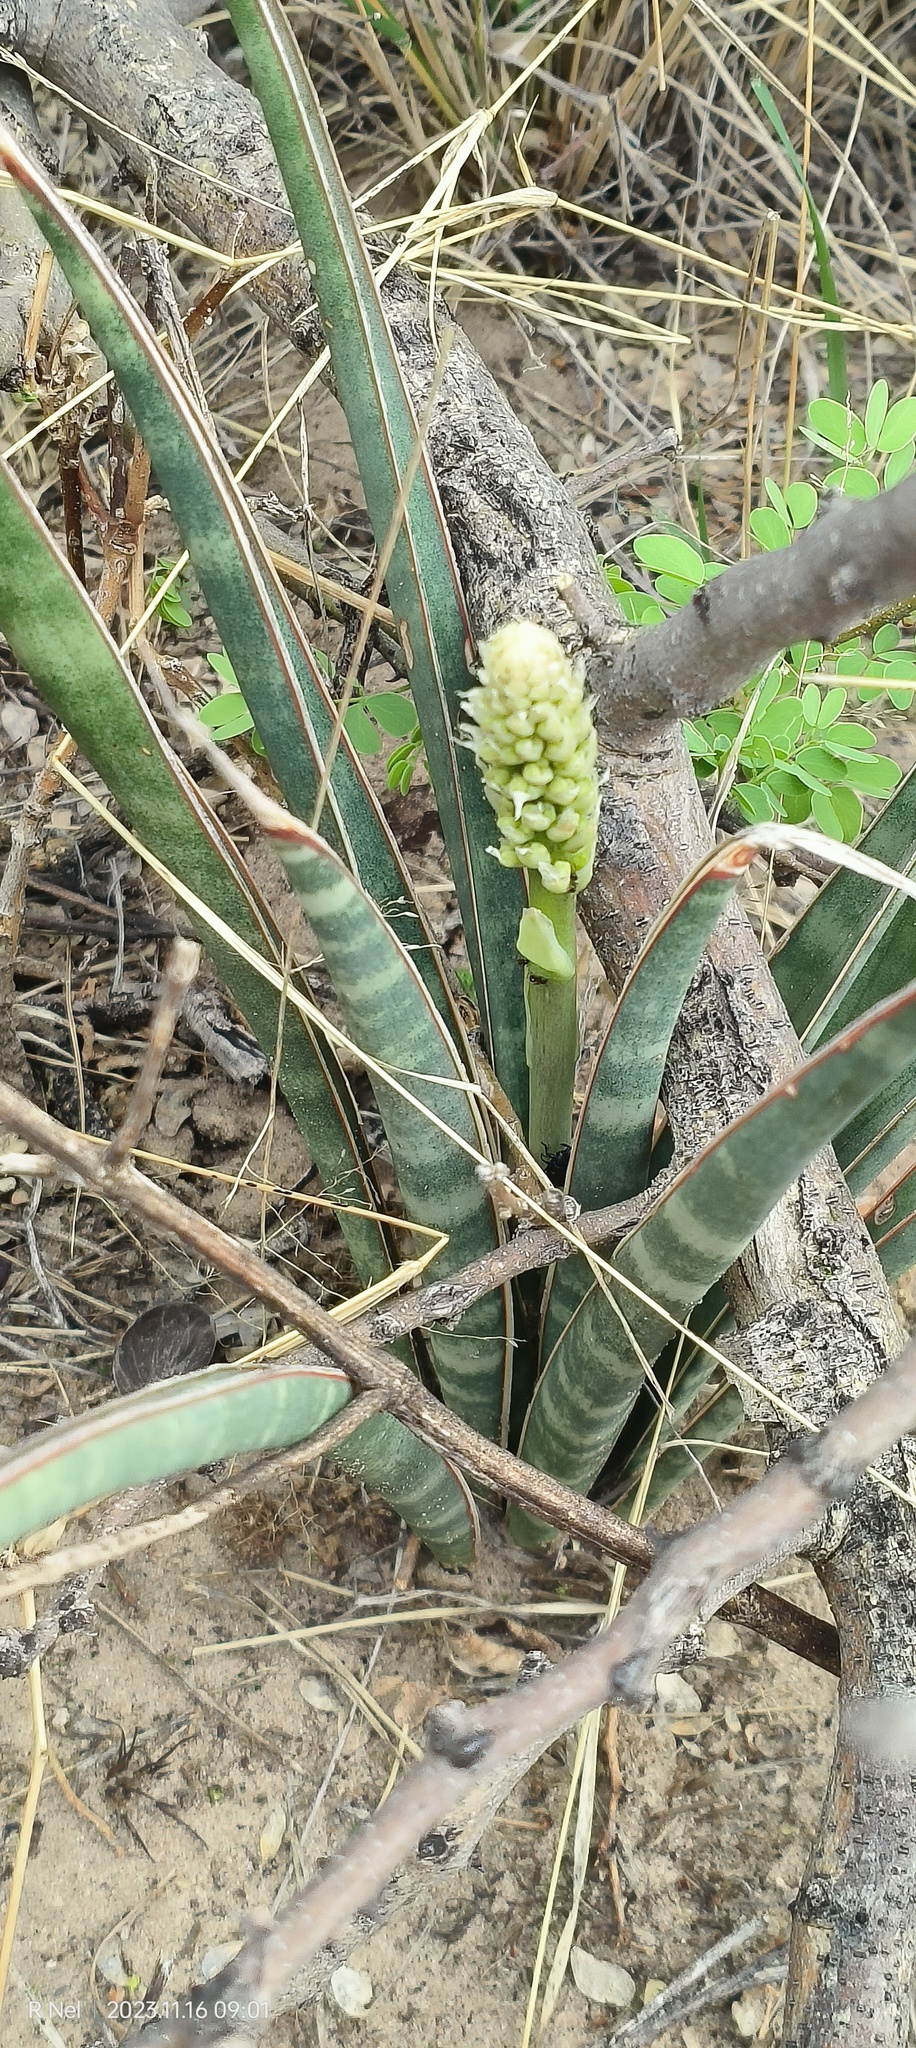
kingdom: Plantae
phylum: Tracheophyta
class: Liliopsida
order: Asparagales
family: Asparagaceae
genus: Dracaena
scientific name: Dracaena aethiopica
